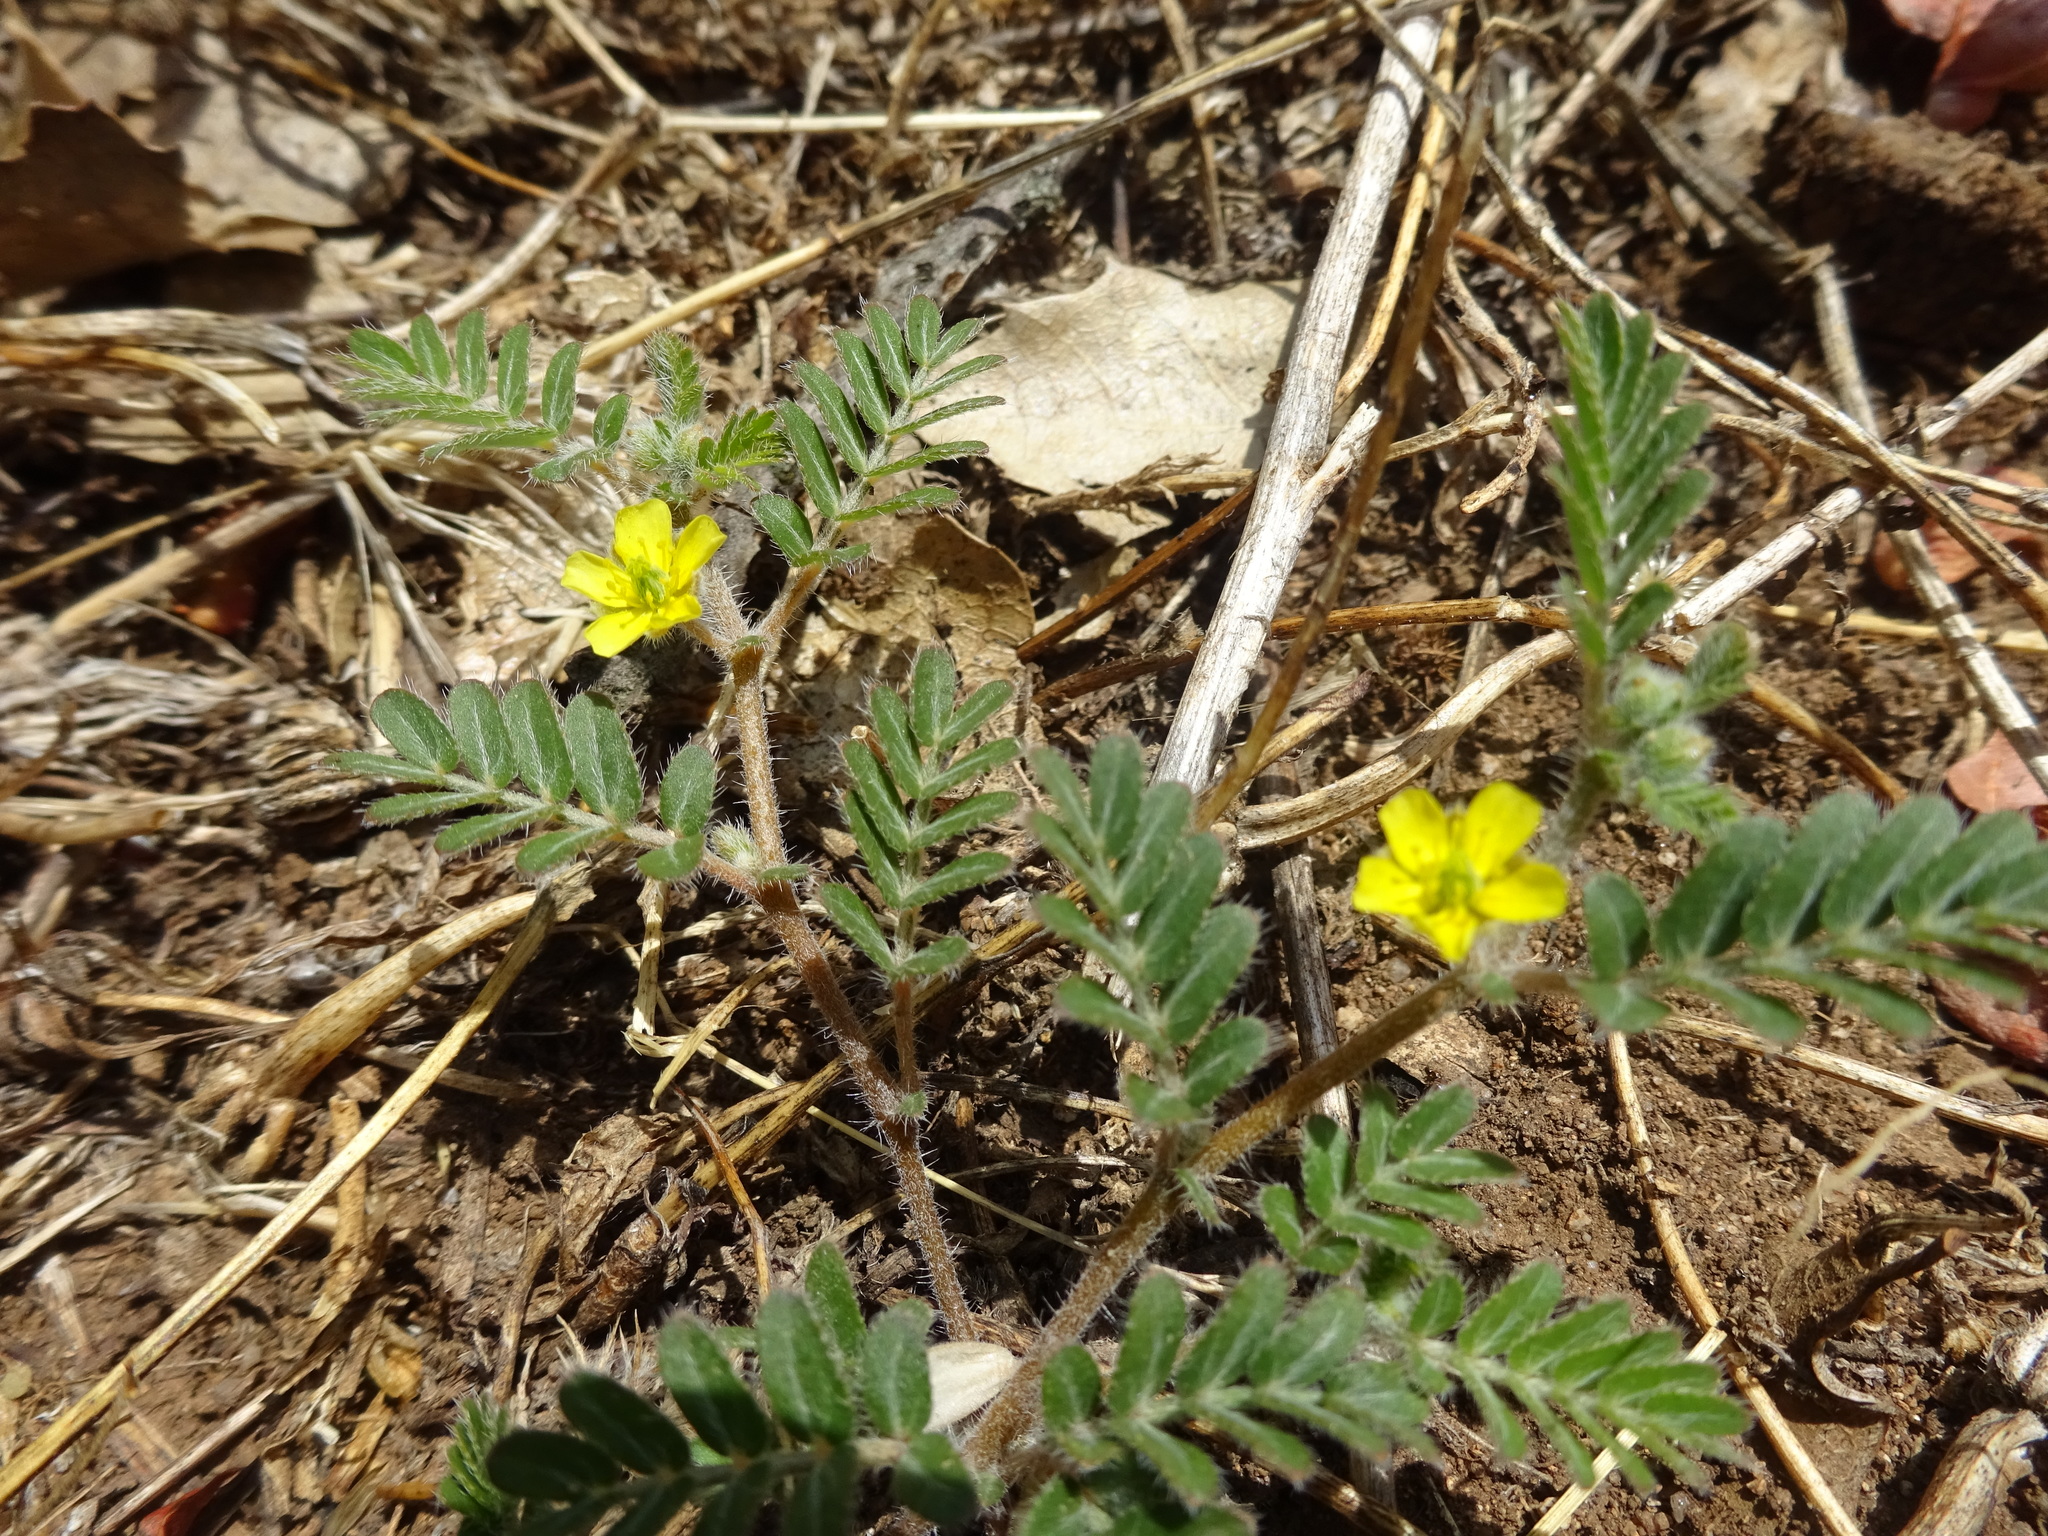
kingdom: Plantae
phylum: Tracheophyta
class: Magnoliopsida
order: Zygophyllales
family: Zygophyllaceae
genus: Tribulus
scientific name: Tribulus terrestris
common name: Puncturevine
